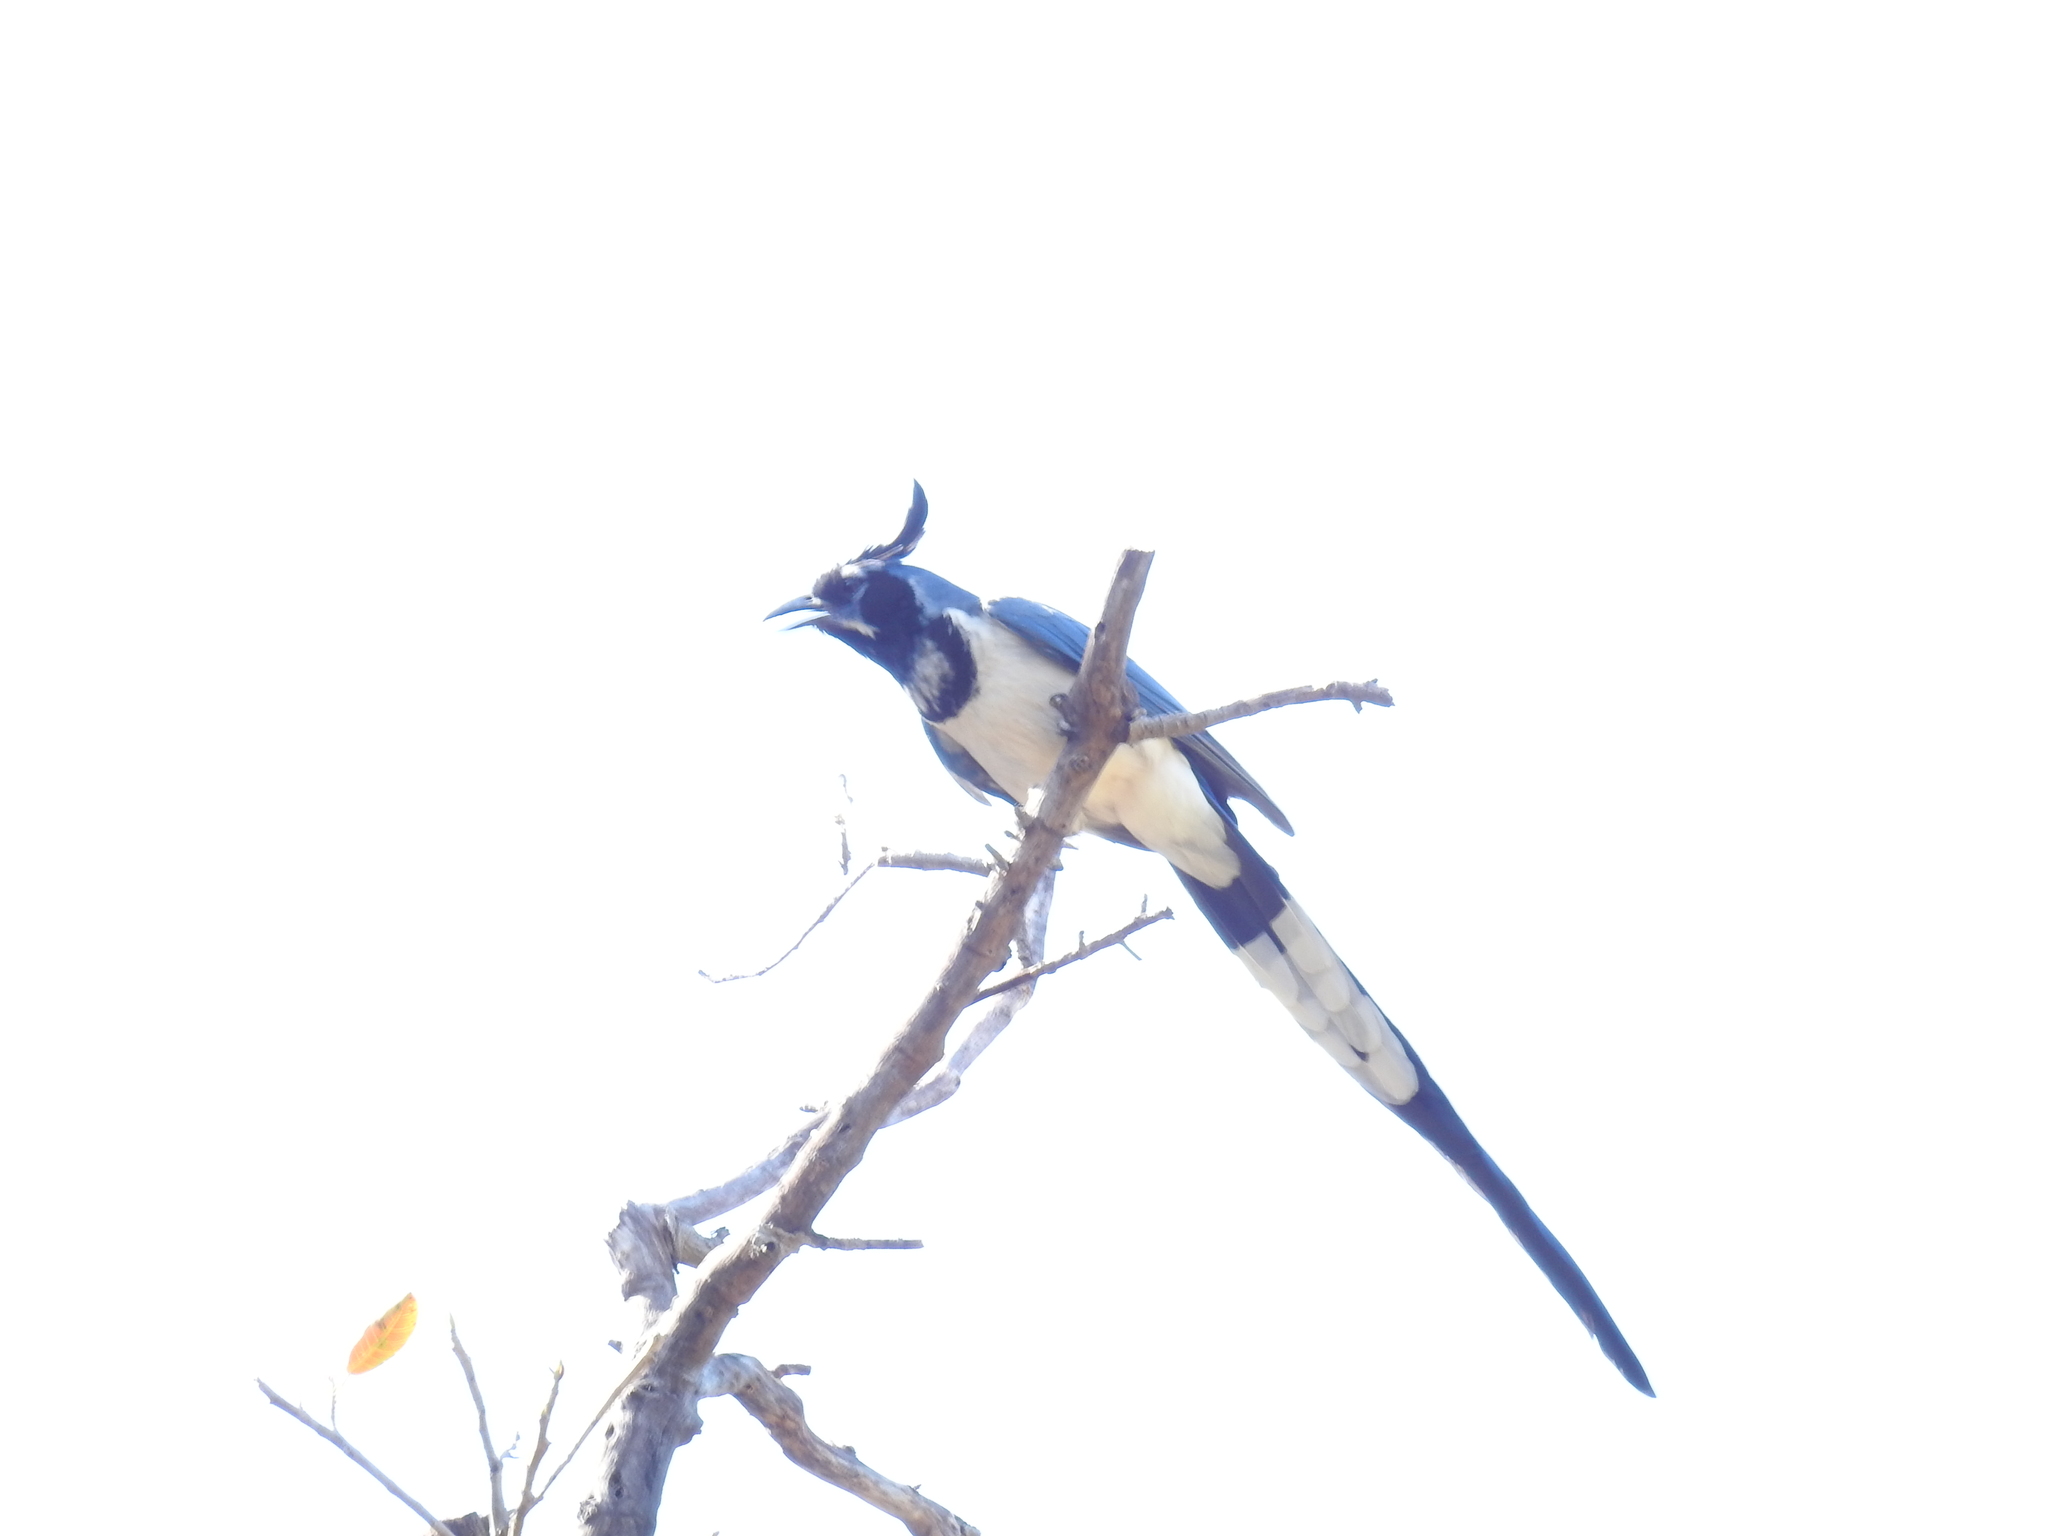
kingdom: Animalia
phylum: Chordata
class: Aves
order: Passeriformes
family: Corvidae
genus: Calocitta
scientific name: Calocitta colliei
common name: Black-throated magpie-jay
